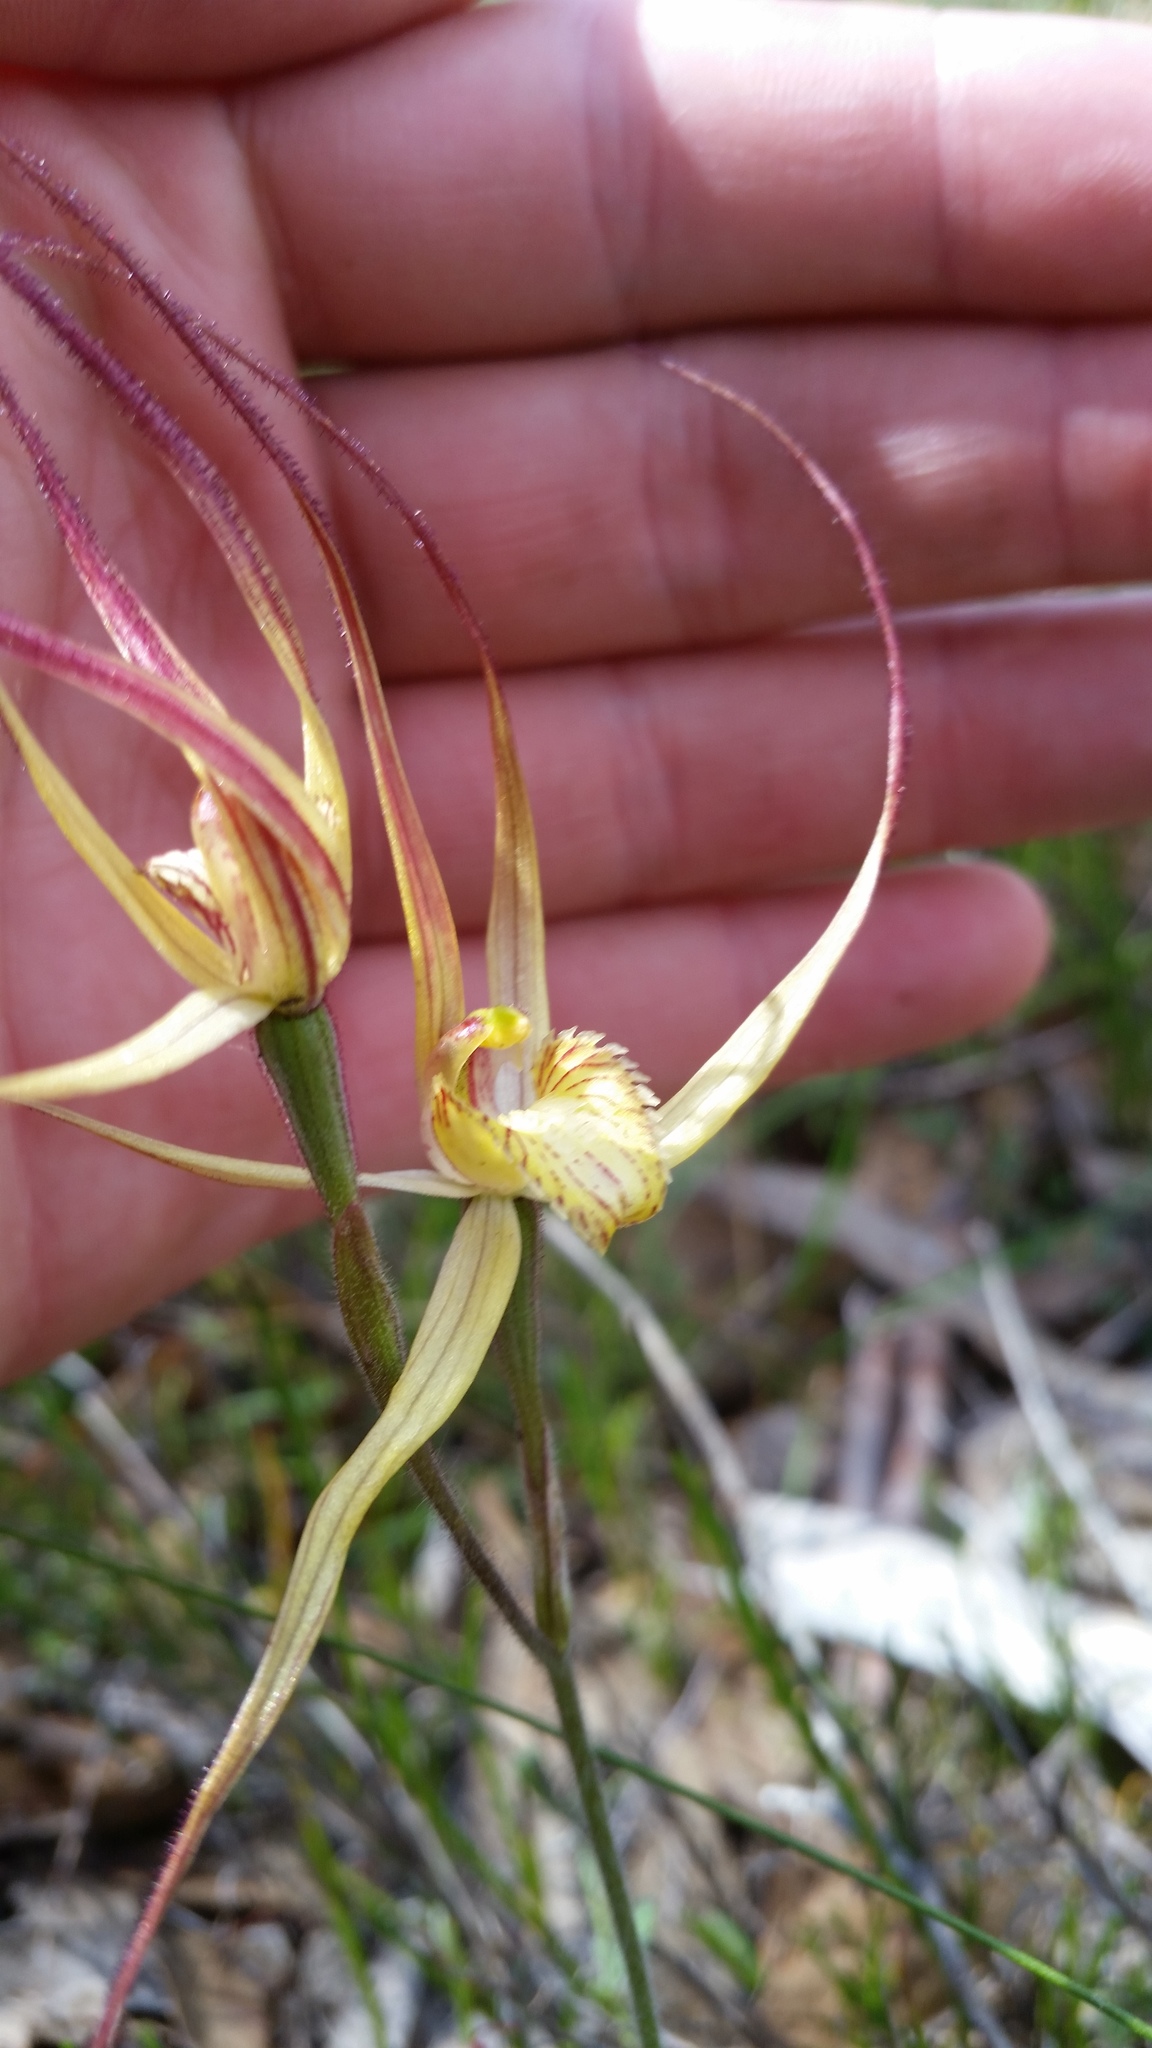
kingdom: Plantae
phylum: Tracheophyta
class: Liliopsida
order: Asparagales
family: Orchidaceae
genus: Caladenia
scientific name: Caladenia straminichila
